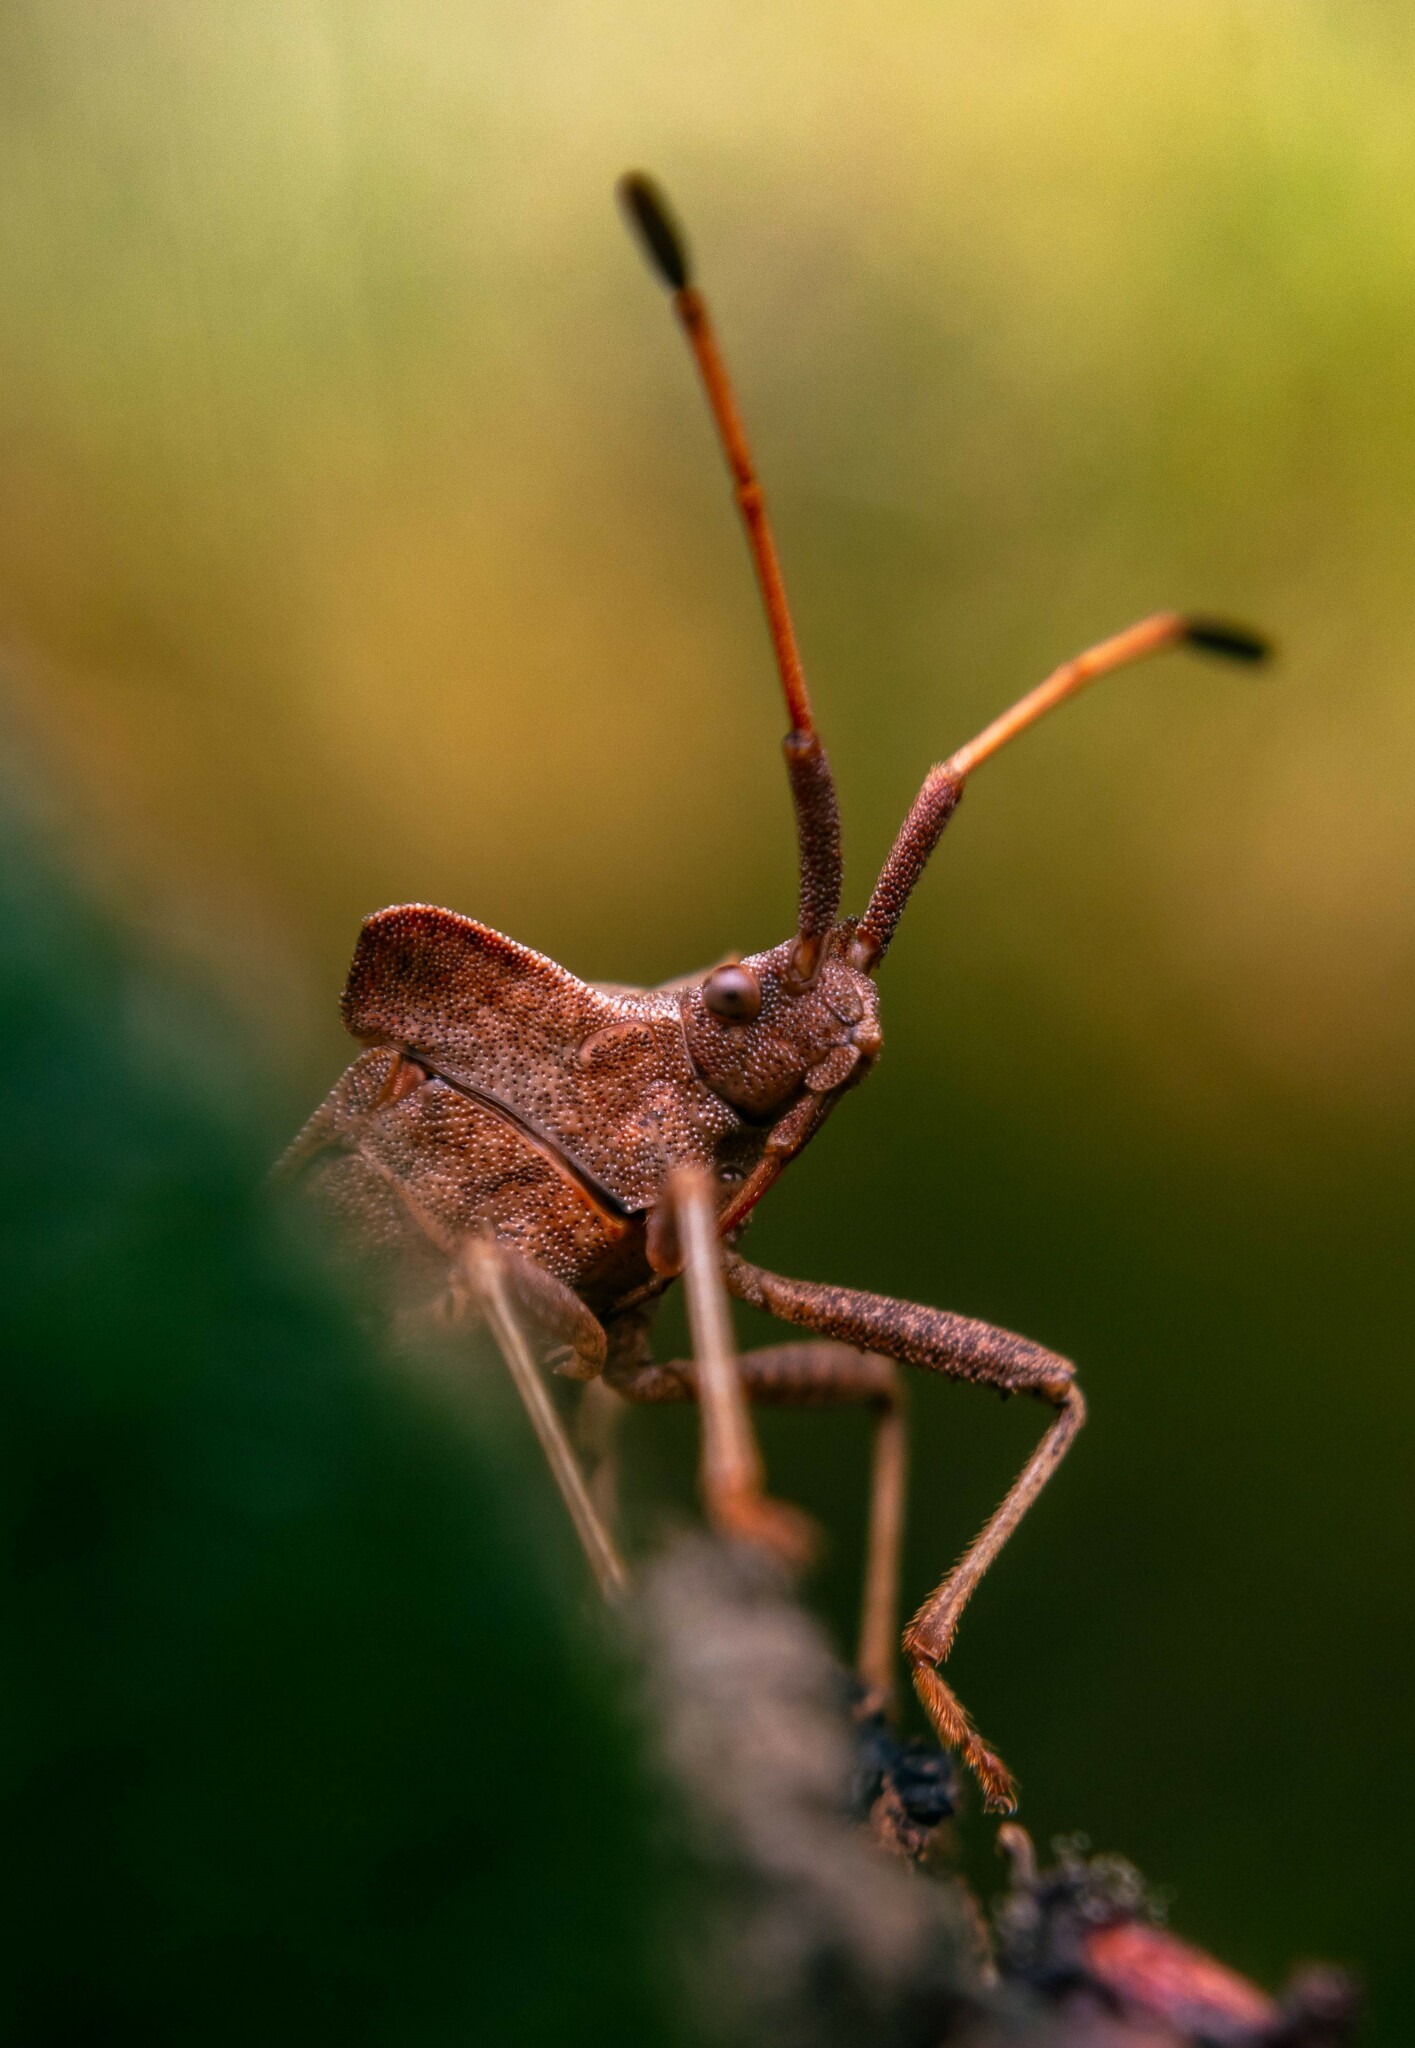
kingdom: Animalia
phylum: Arthropoda
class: Insecta
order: Hemiptera
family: Coreidae
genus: Coreus
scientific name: Coreus marginatus
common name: Dock bug
